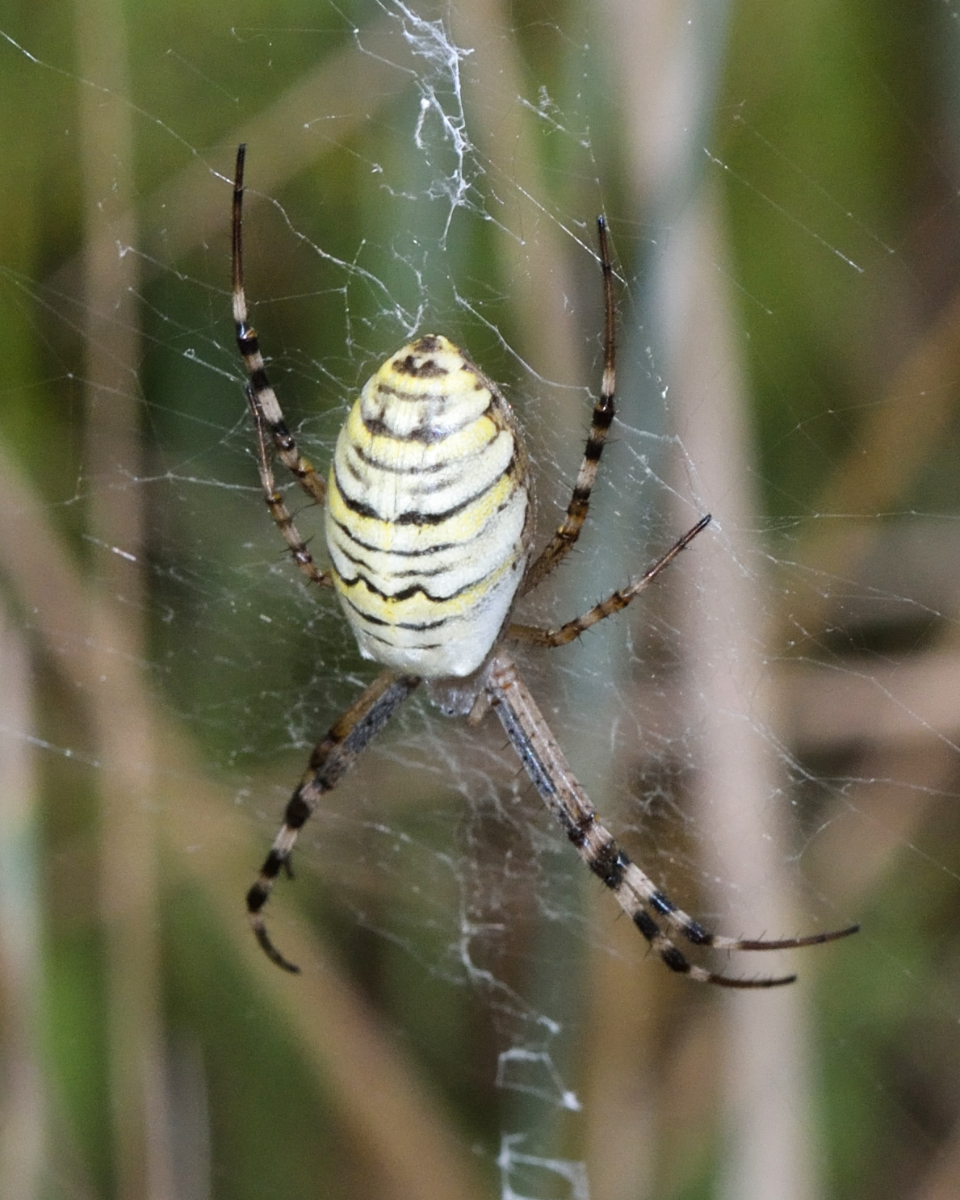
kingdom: Animalia
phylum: Arthropoda
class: Arachnida
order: Araneae
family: Araneidae
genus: Argiope
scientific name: Argiope bruennichi
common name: Wasp spider
